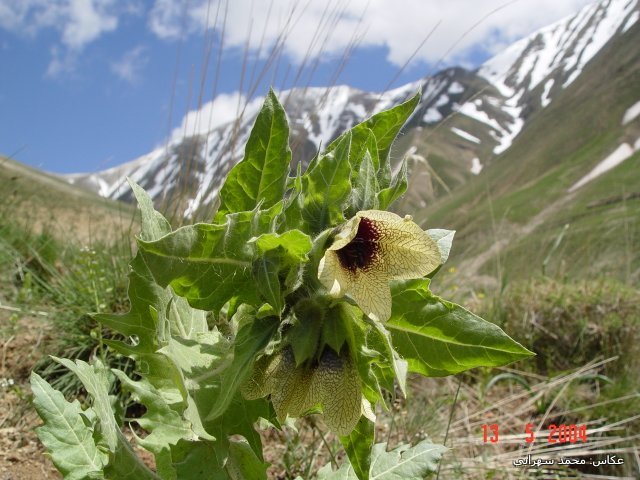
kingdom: Plantae
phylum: Tracheophyta
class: Magnoliopsida
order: Solanales
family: Solanaceae
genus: Hyoscyamus
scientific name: Hyoscyamus niger
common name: Henbane
